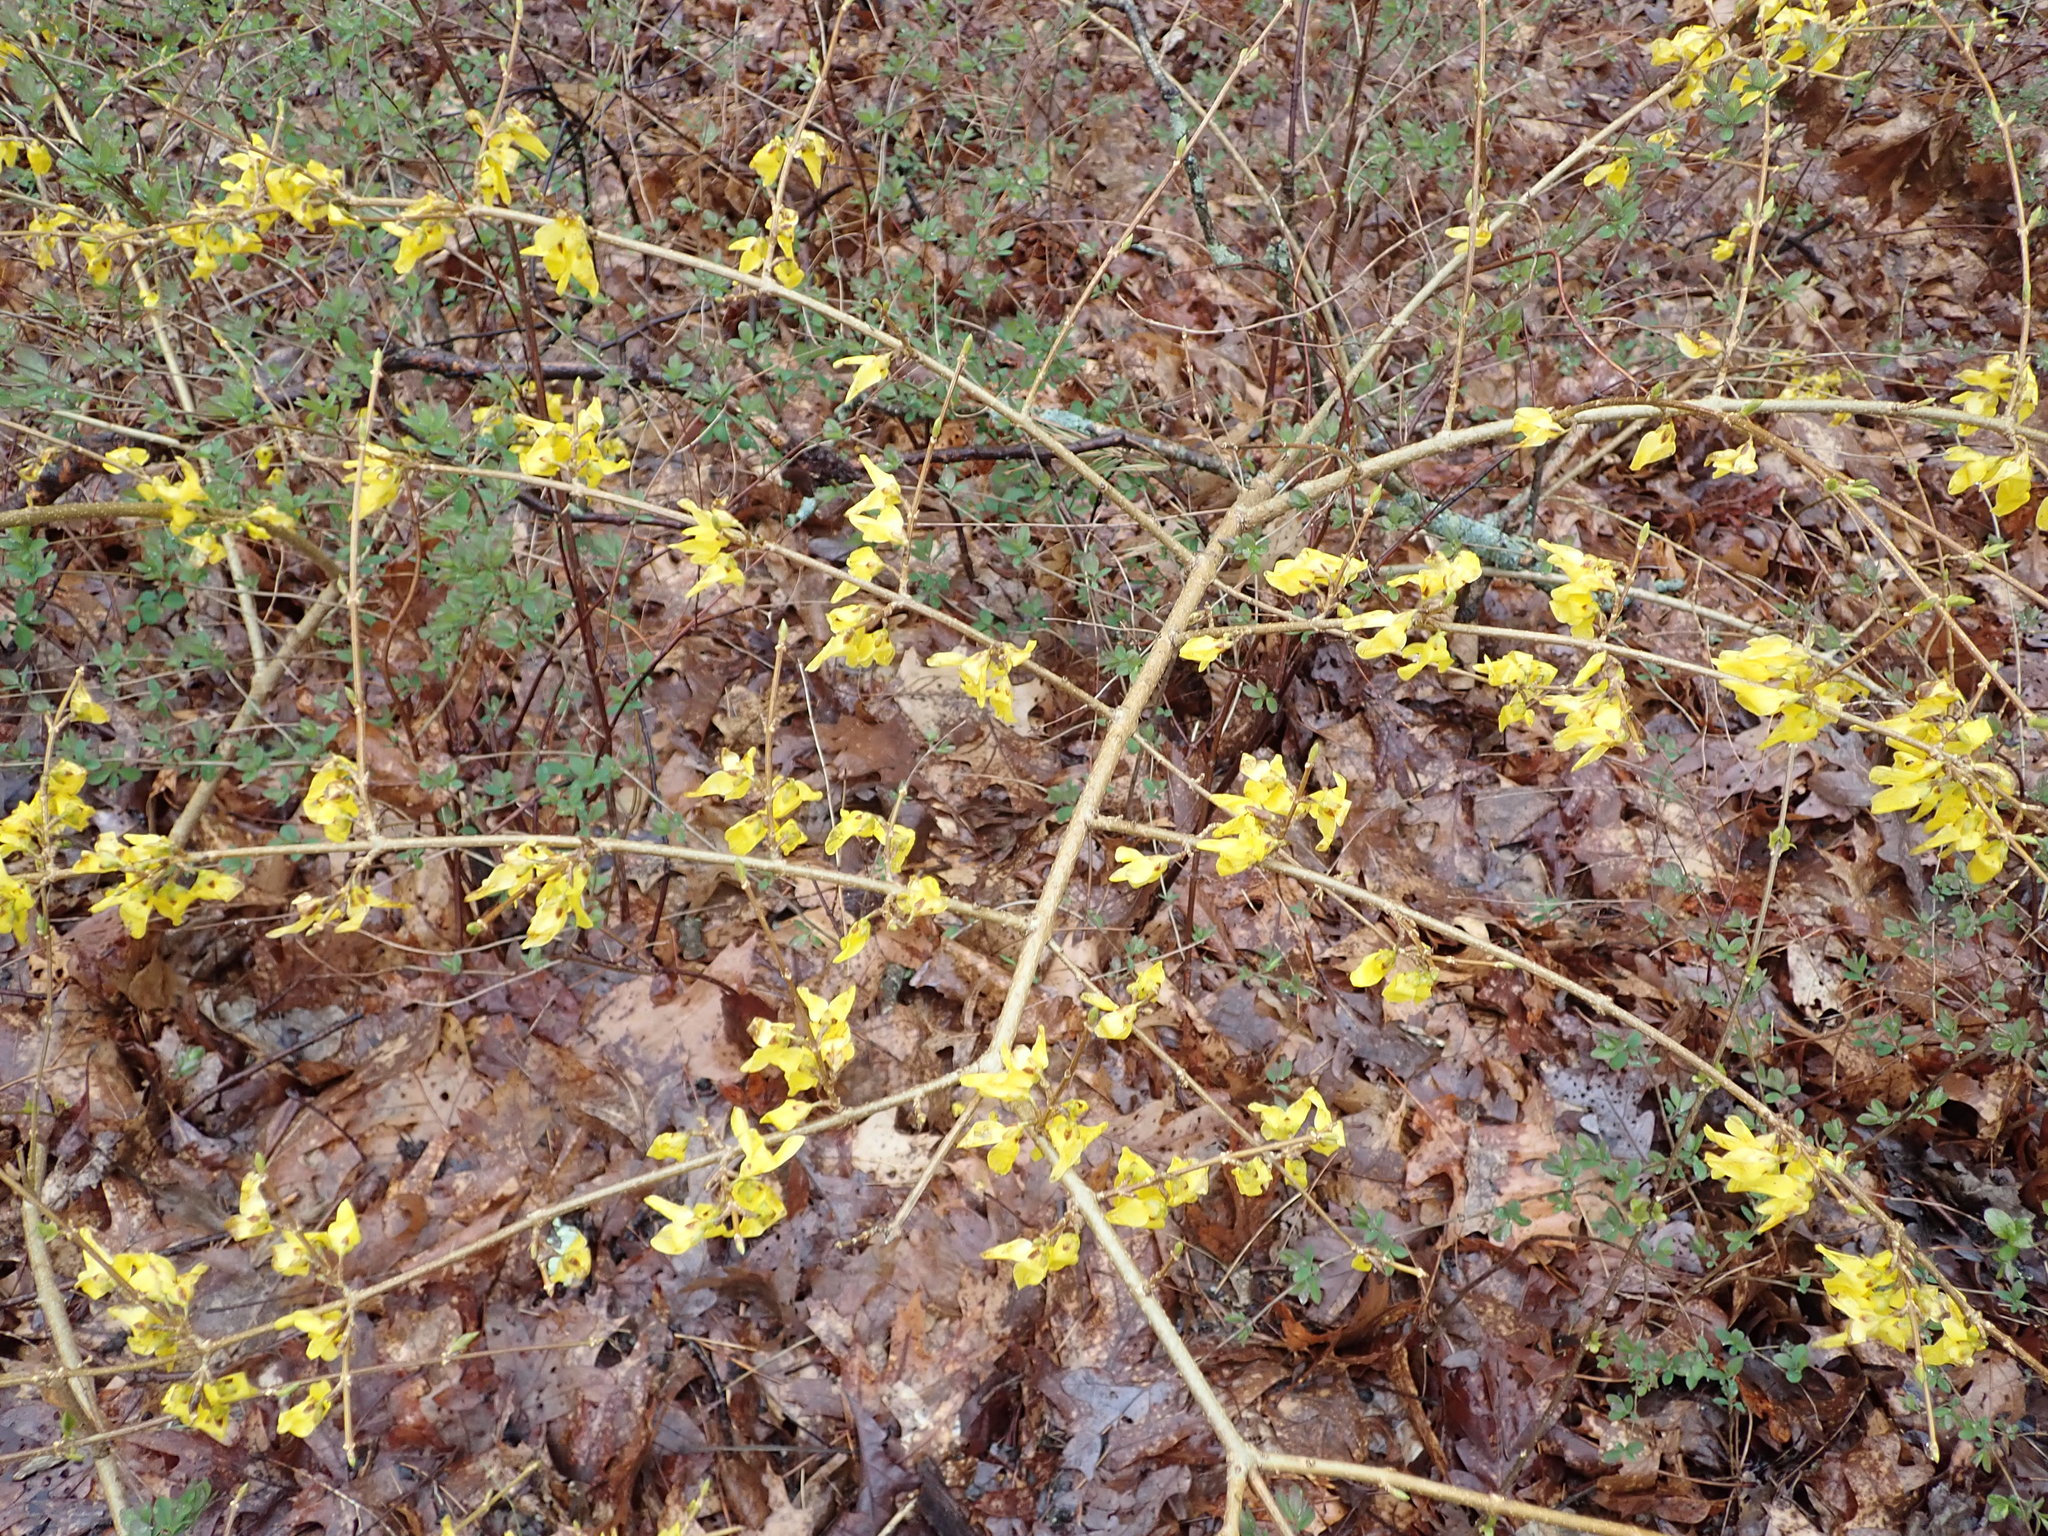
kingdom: Plantae
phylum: Tracheophyta
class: Magnoliopsida
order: Lamiales
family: Oleaceae
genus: Forsythia
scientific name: Forsythia intermedia
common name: Forsythia
